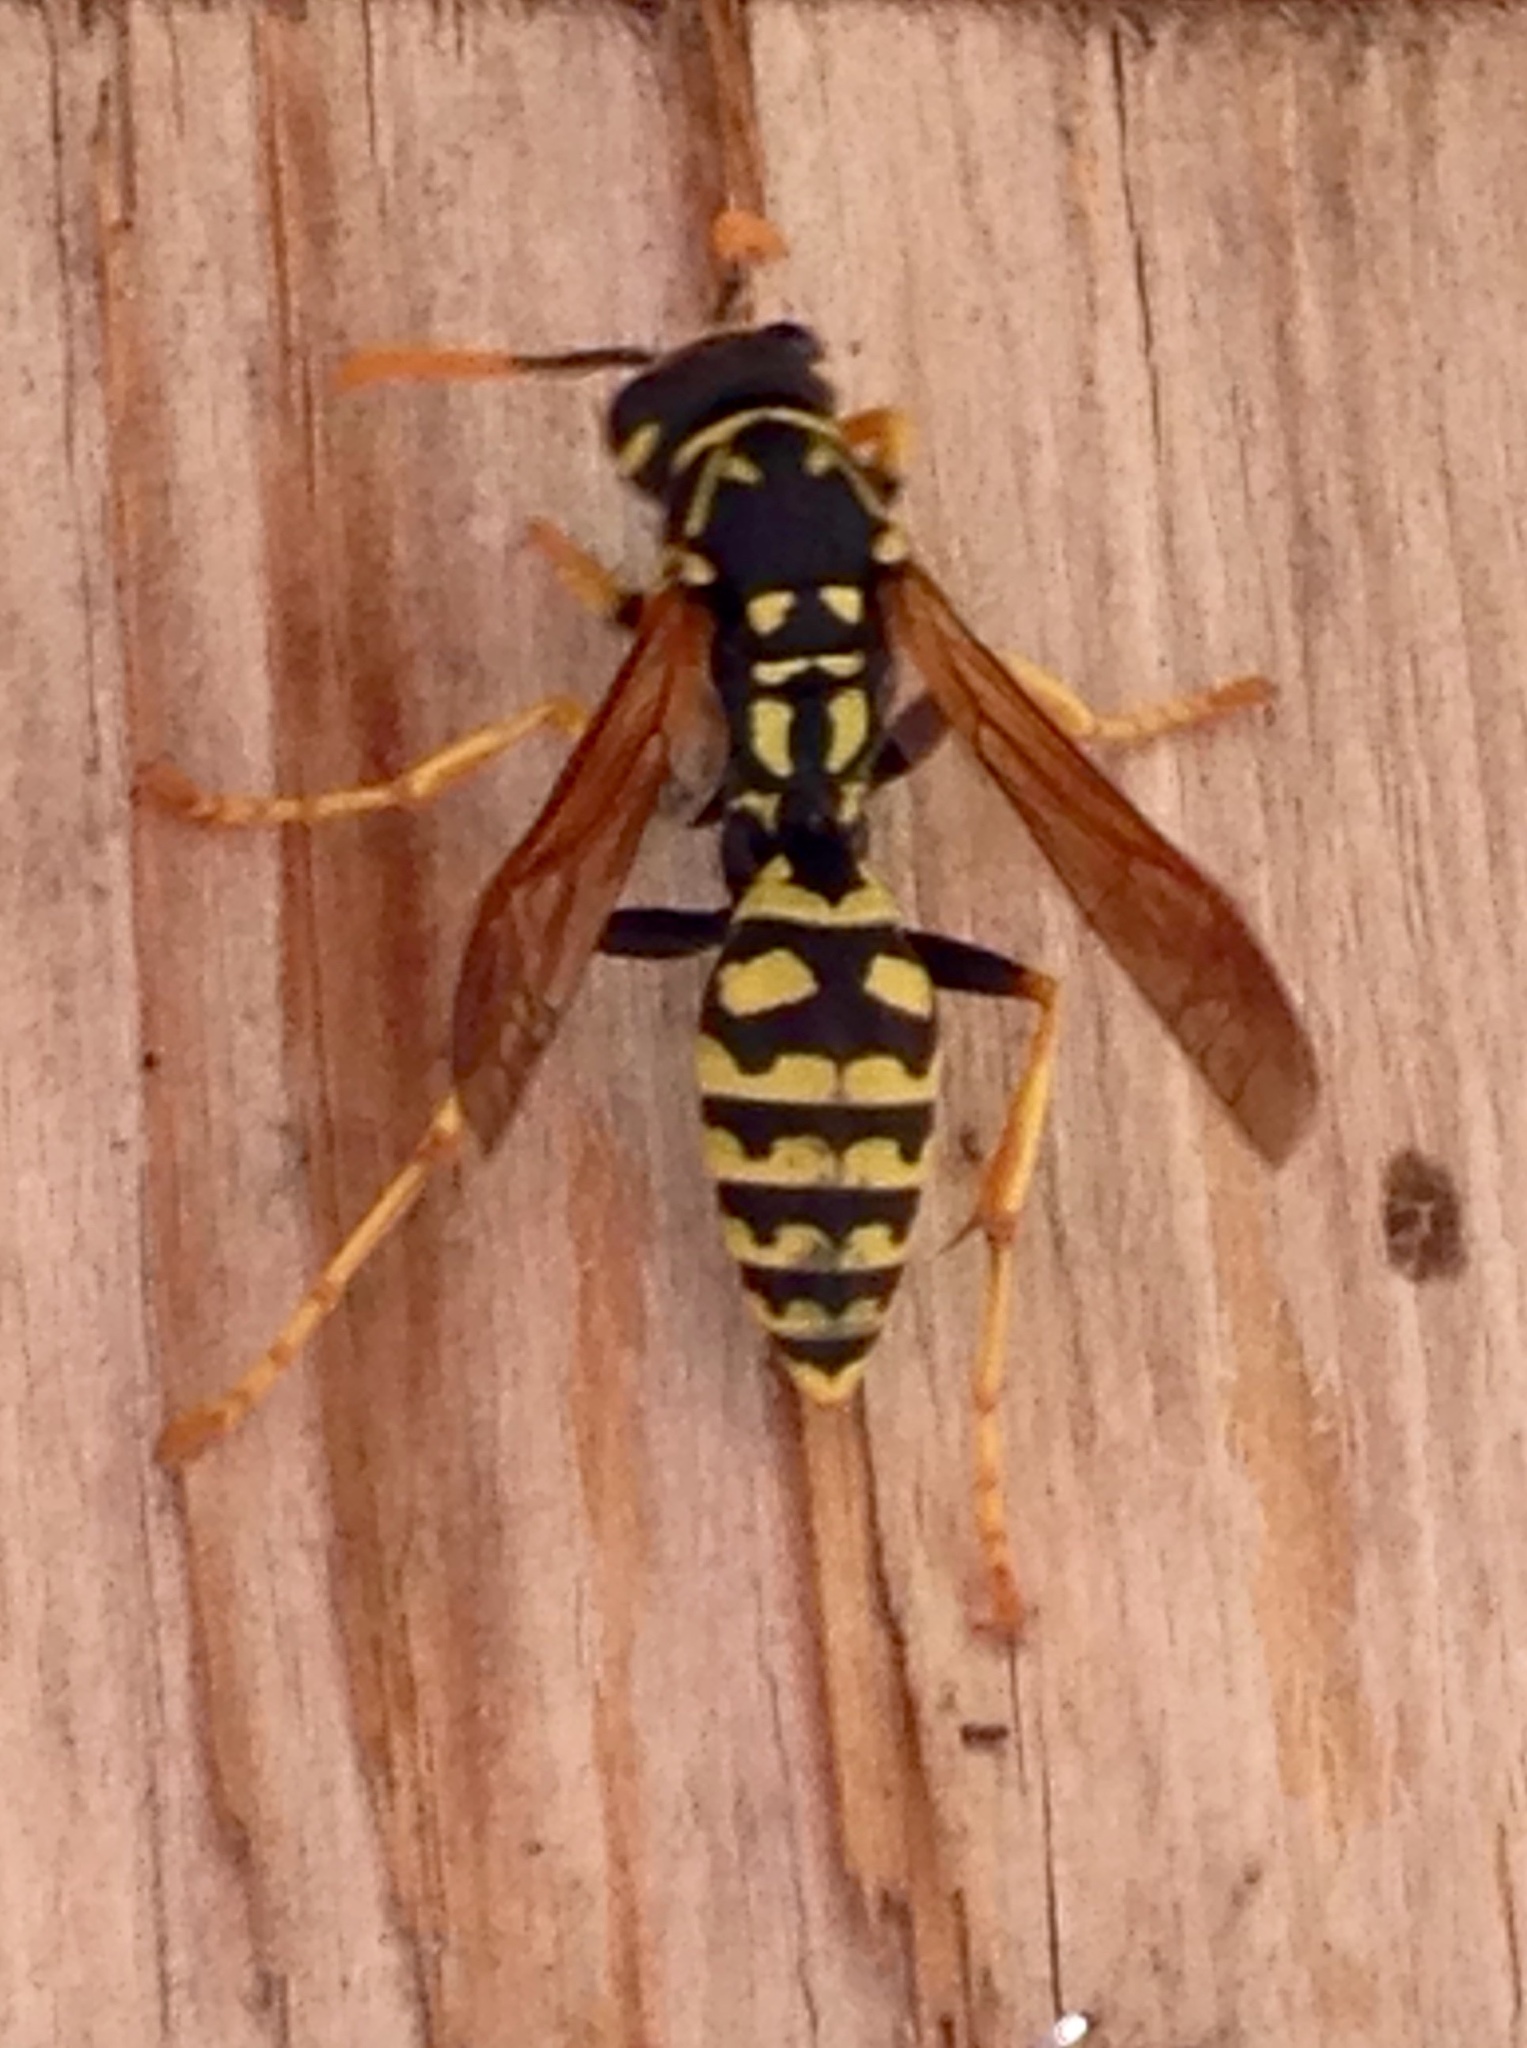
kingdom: Animalia
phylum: Arthropoda
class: Insecta
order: Hymenoptera
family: Eumenidae
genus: Polistes
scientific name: Polistes dominula
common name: Paper wasp
